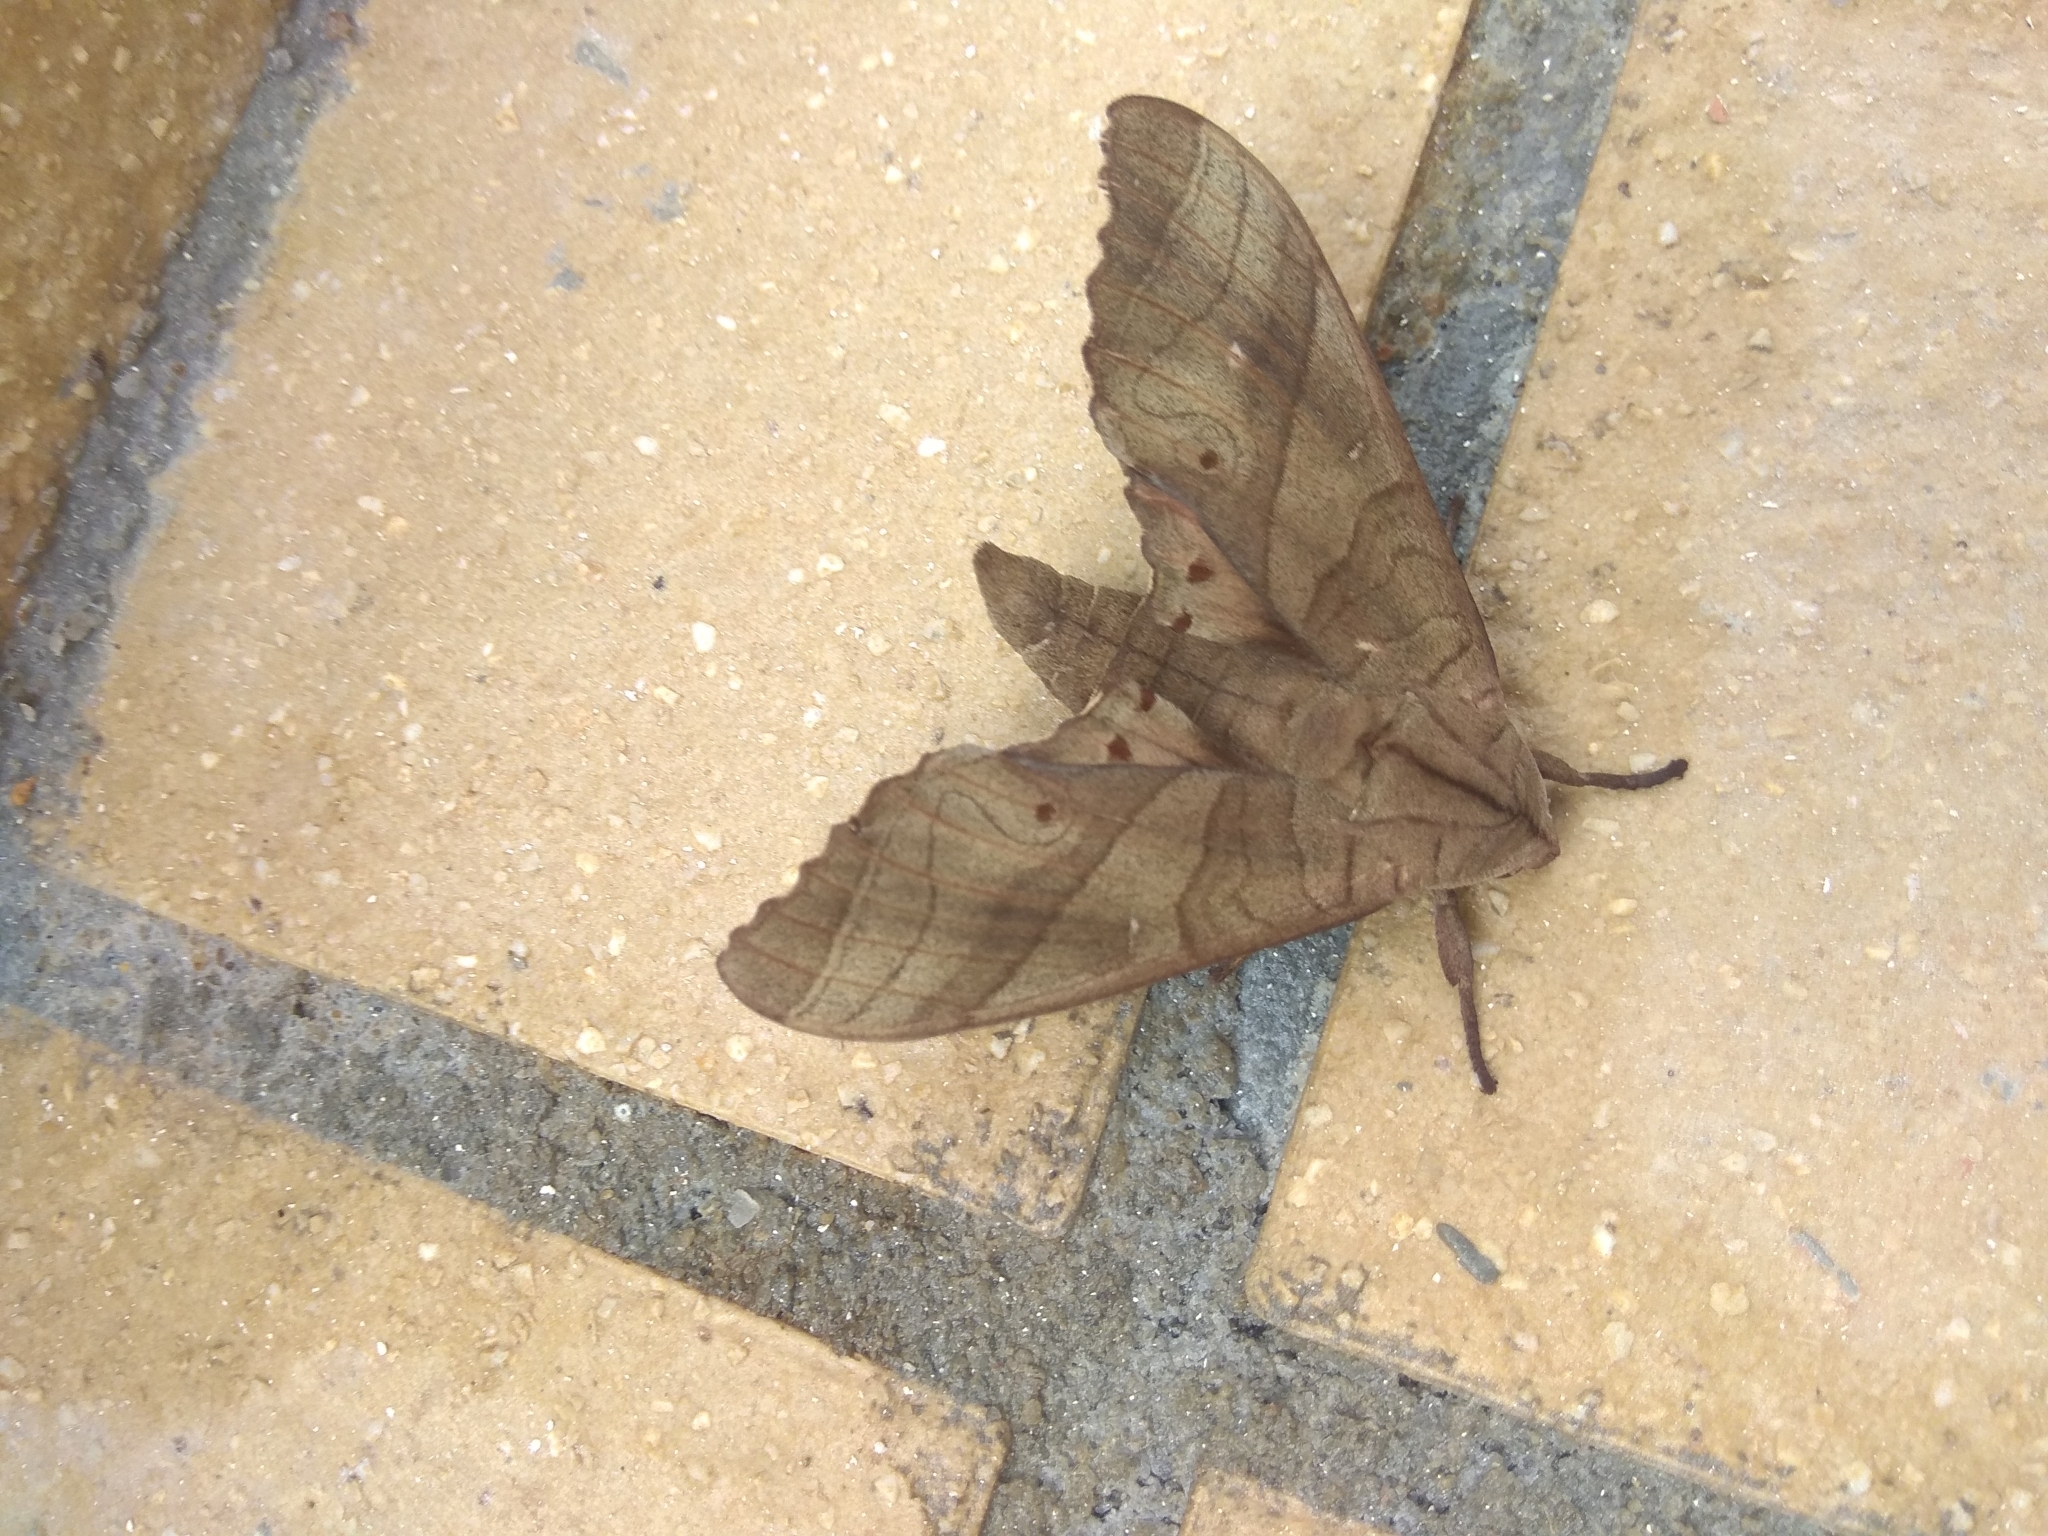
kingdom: Animalia
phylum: Arthropoda
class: Insecta
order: Lepidoptera
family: Sphingidae
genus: Marumba
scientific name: Marumba dyras
